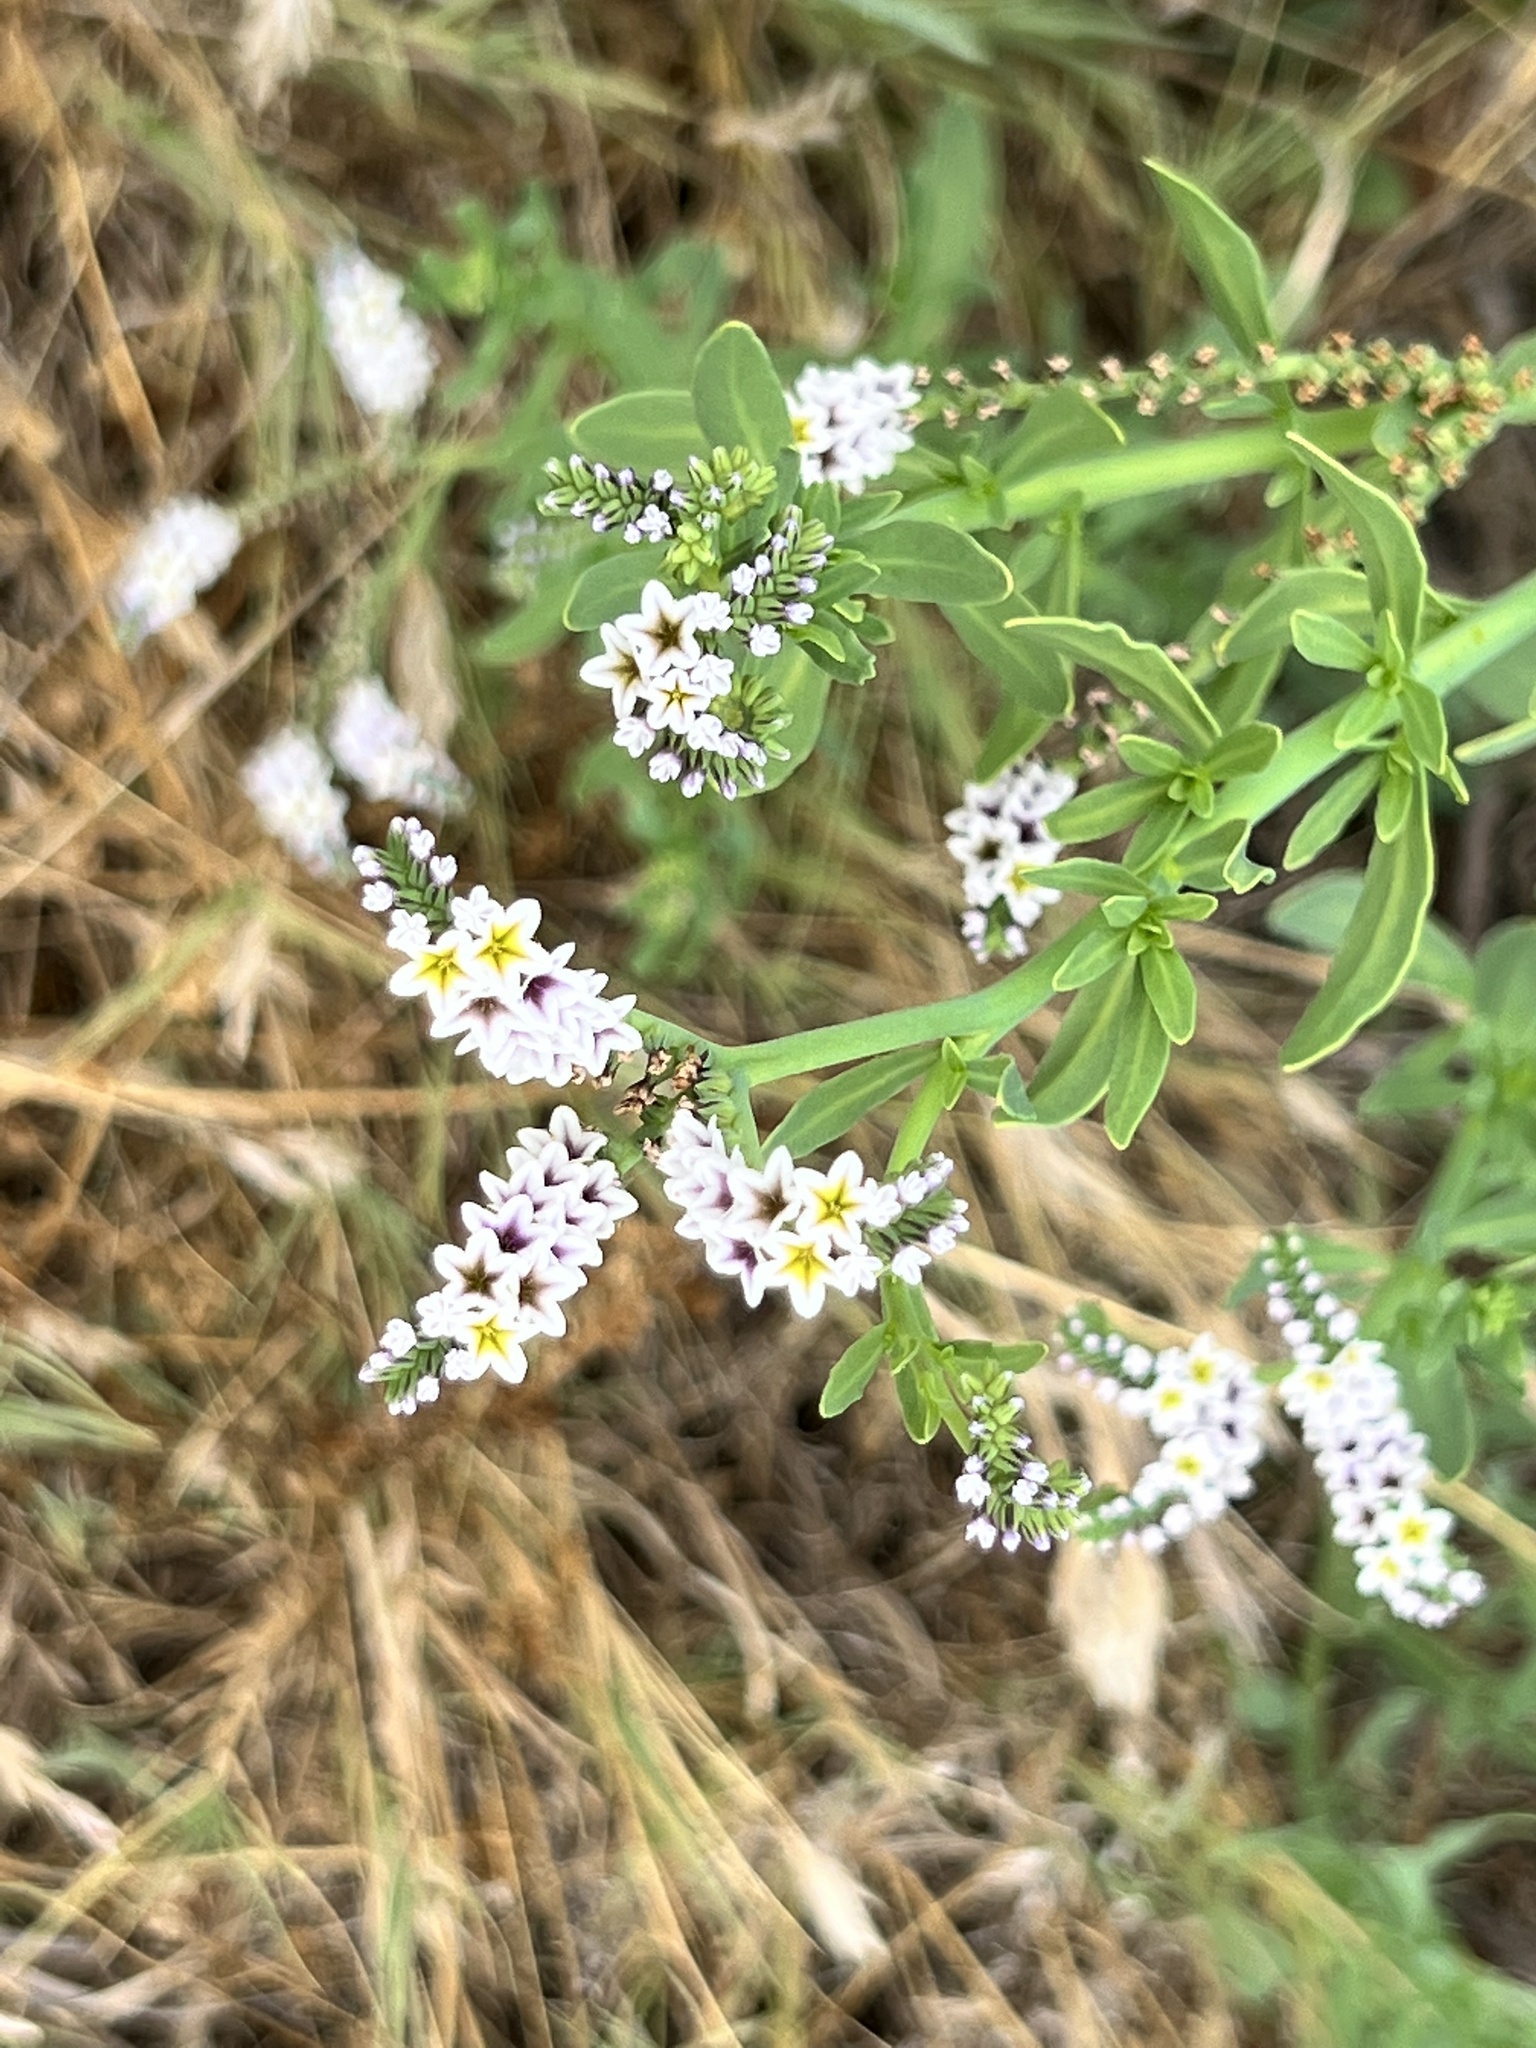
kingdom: Plantae
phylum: Tracheophyta
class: Magnoliopsida
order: Boraginales
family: Heliotropiaceae
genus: Heliotropium
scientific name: Heliotropium curassavicum
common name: Seaside heliotrope
